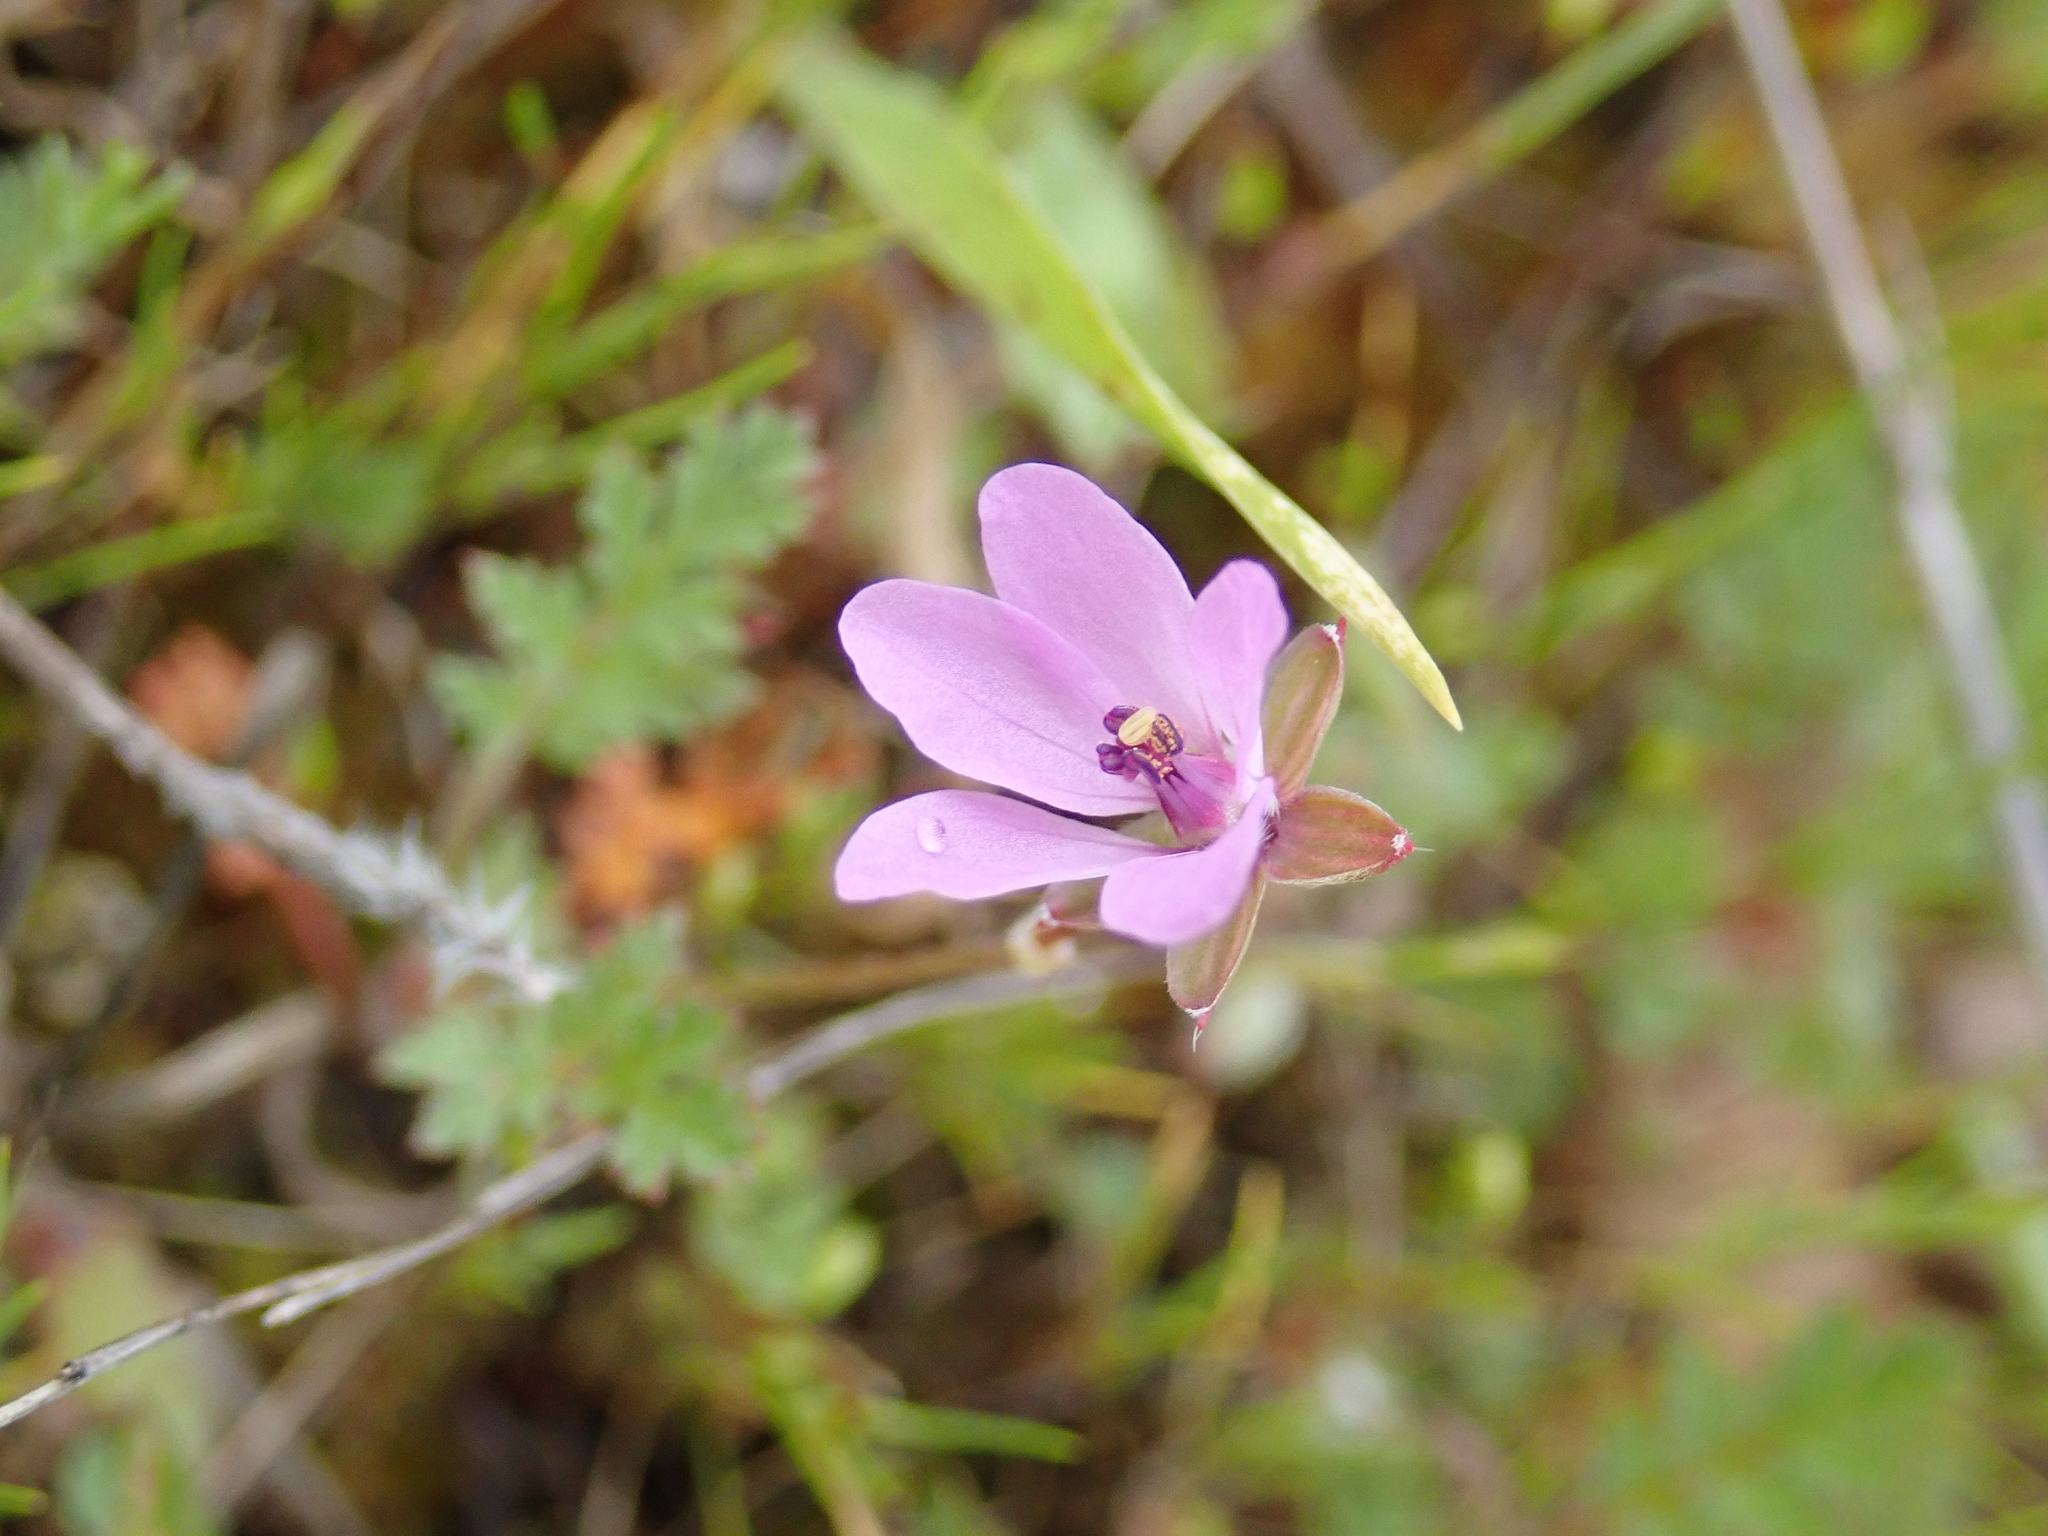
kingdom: Plantae
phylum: Tracheophyta
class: Magnoliopsida
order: Geraniales
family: Geraniaceae
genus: Erodium
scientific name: Erodium cicutarium
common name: Common stork's-bill
